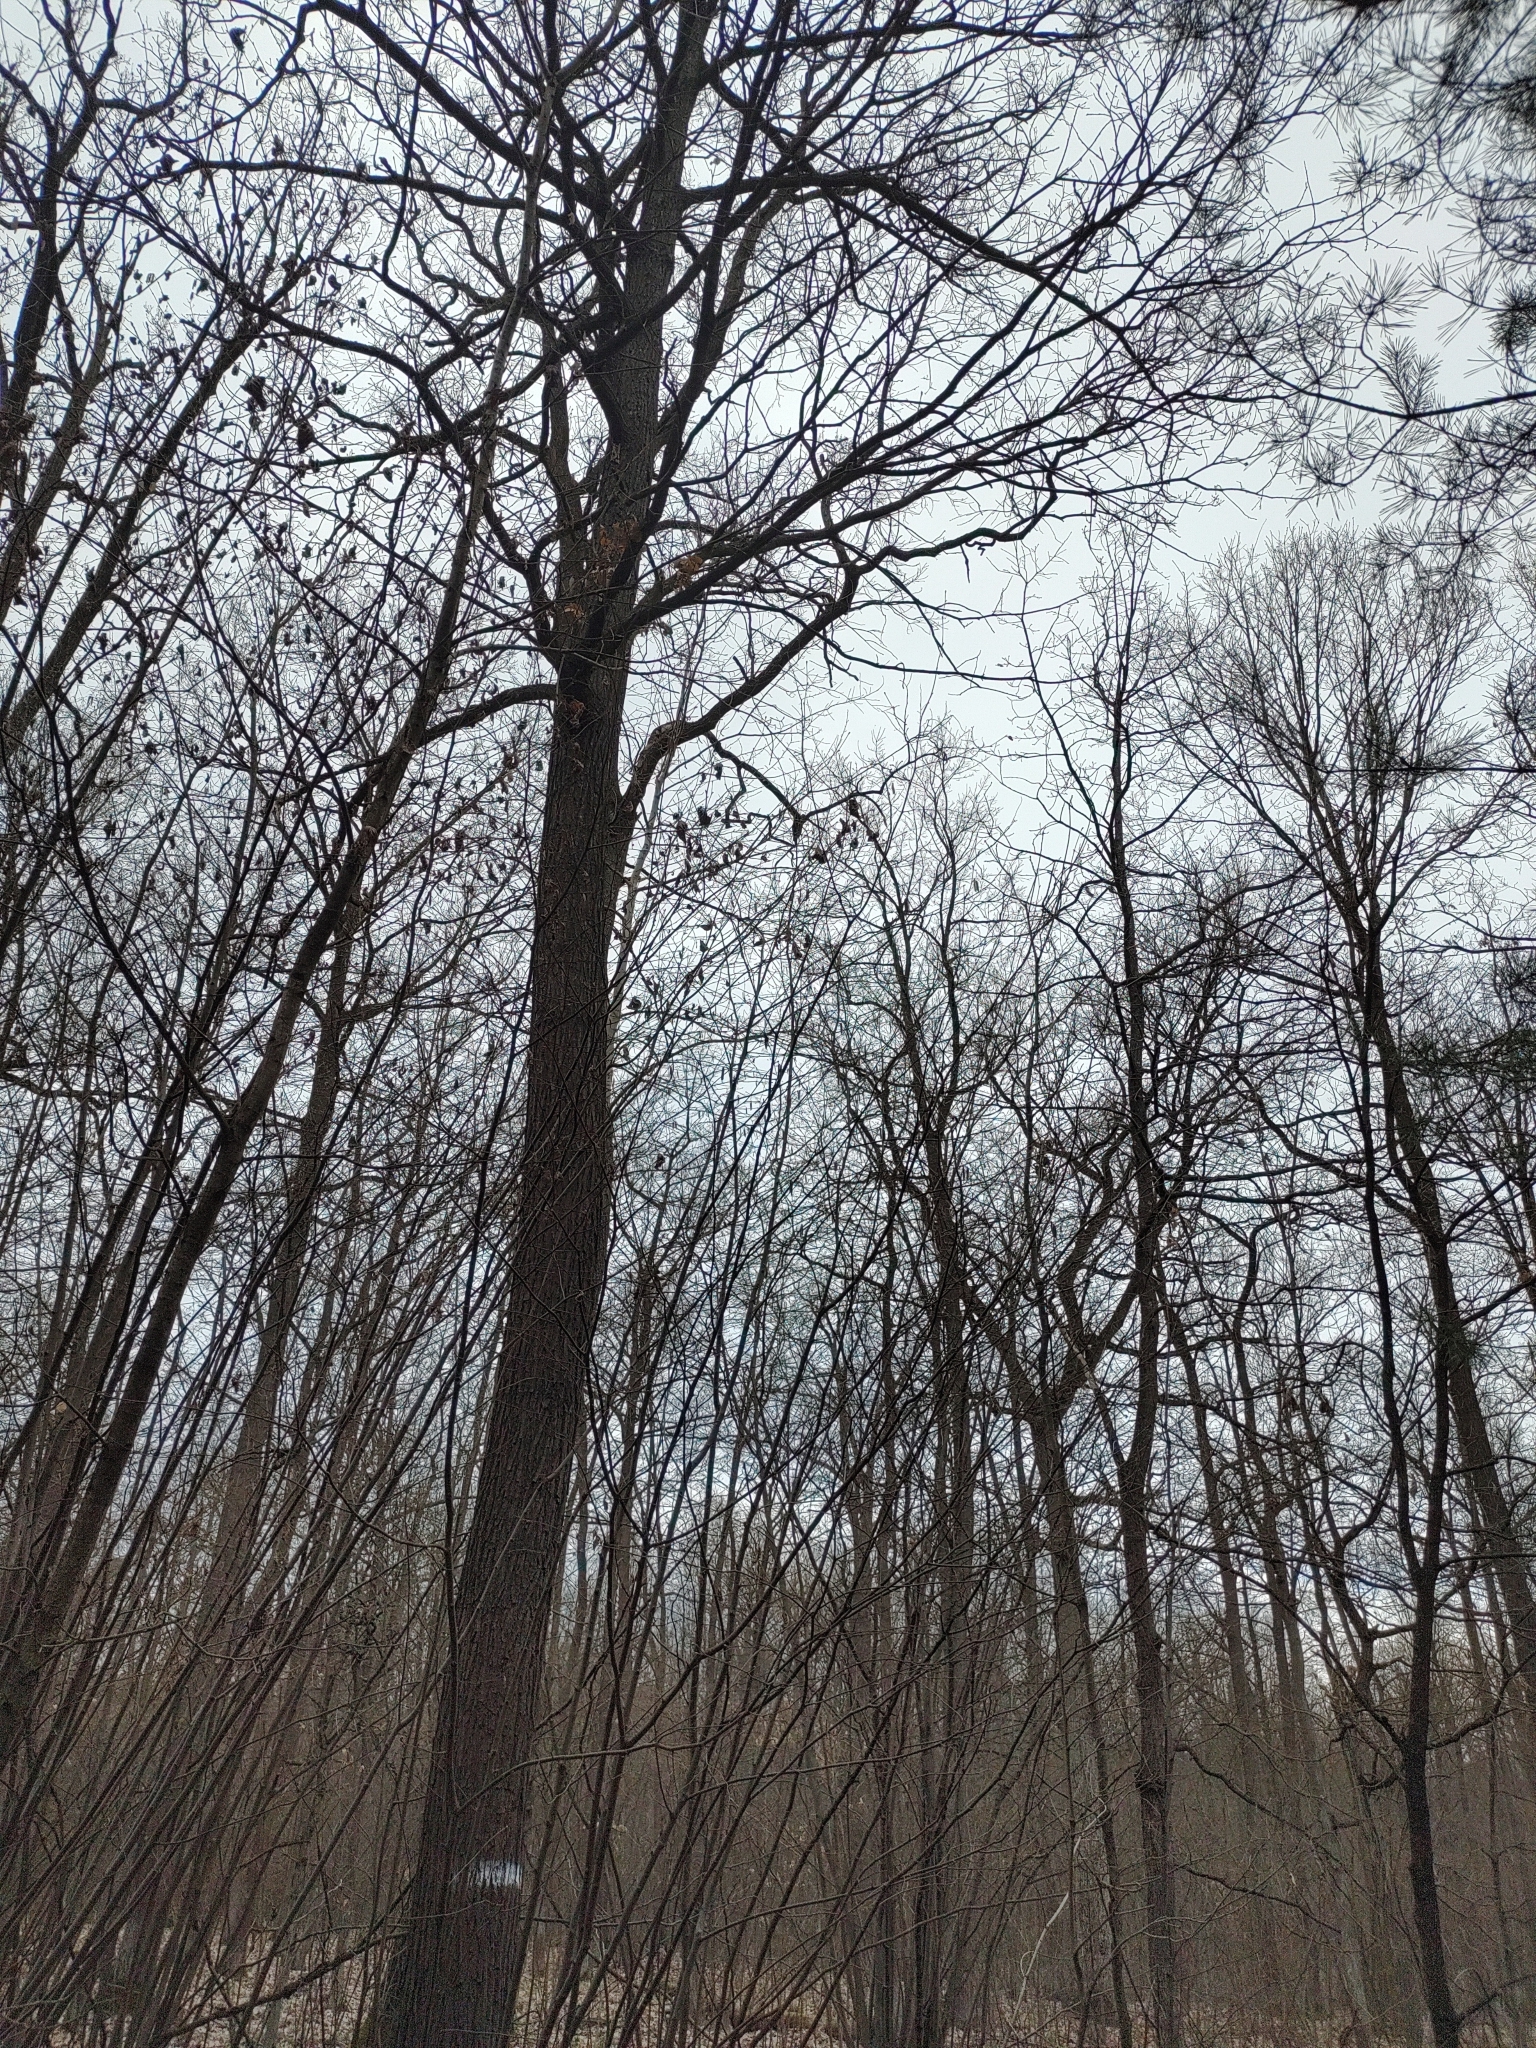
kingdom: Animalia
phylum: Chordata
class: Aves
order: Passeriformes
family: Turdidae
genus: Turdus
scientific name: Turdus philomelos
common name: Song thrush
